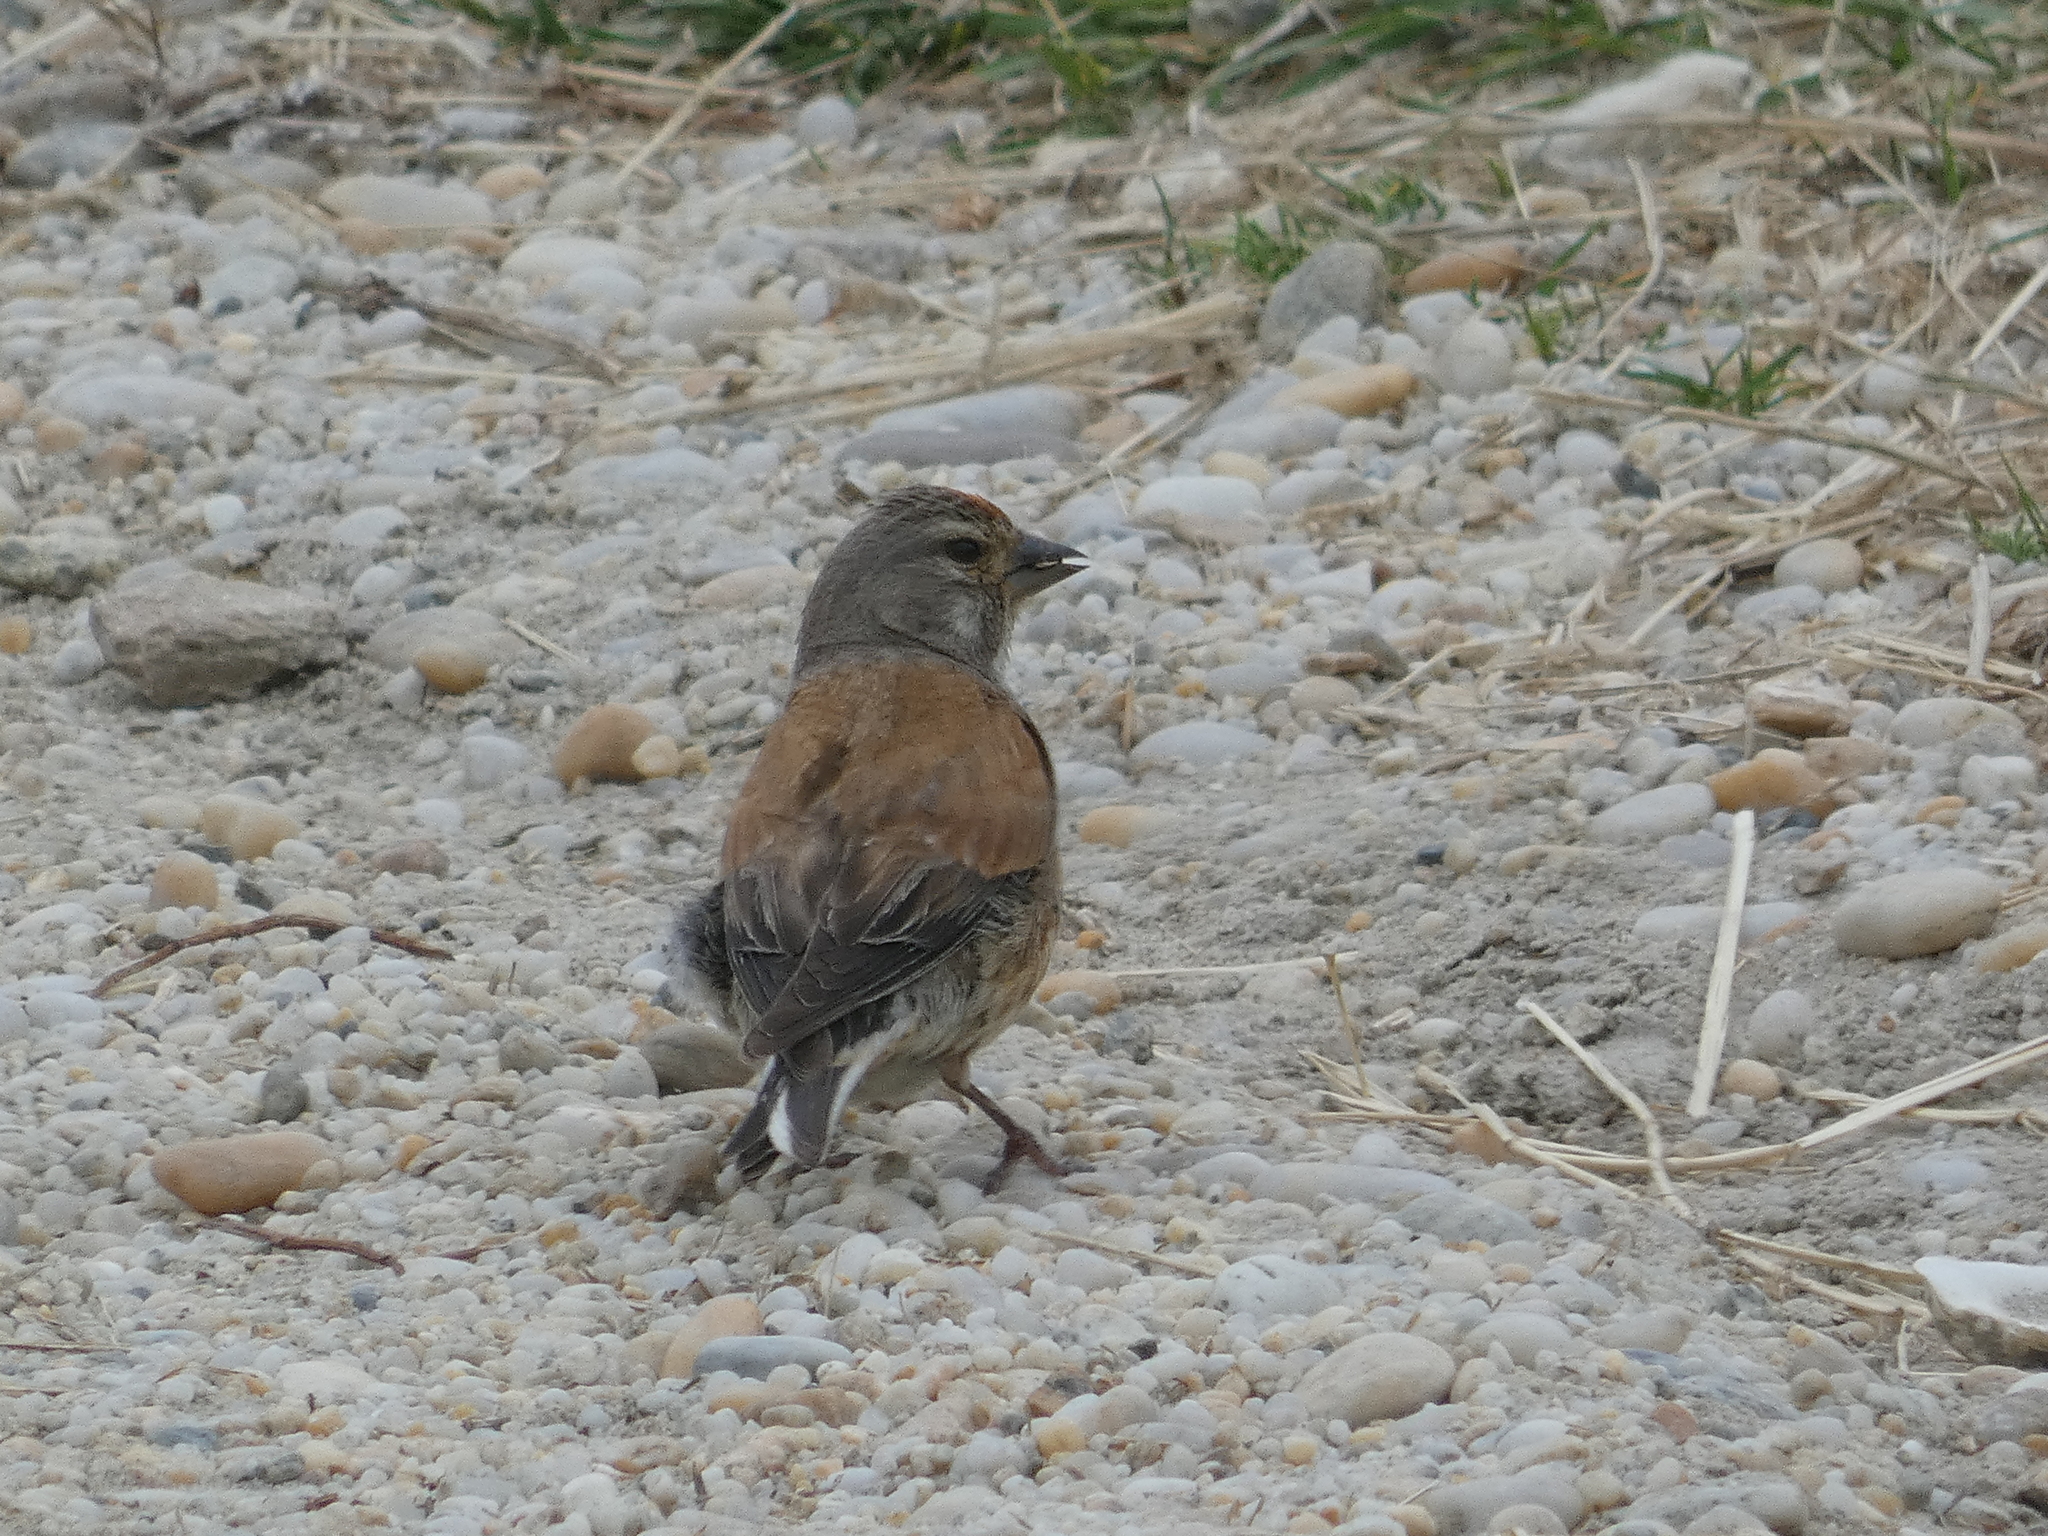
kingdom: Animalia
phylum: Chordata
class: Aves
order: Passeriformes
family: Fringillidae
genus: Linaria
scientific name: Linaria cannabina
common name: Common linnet
